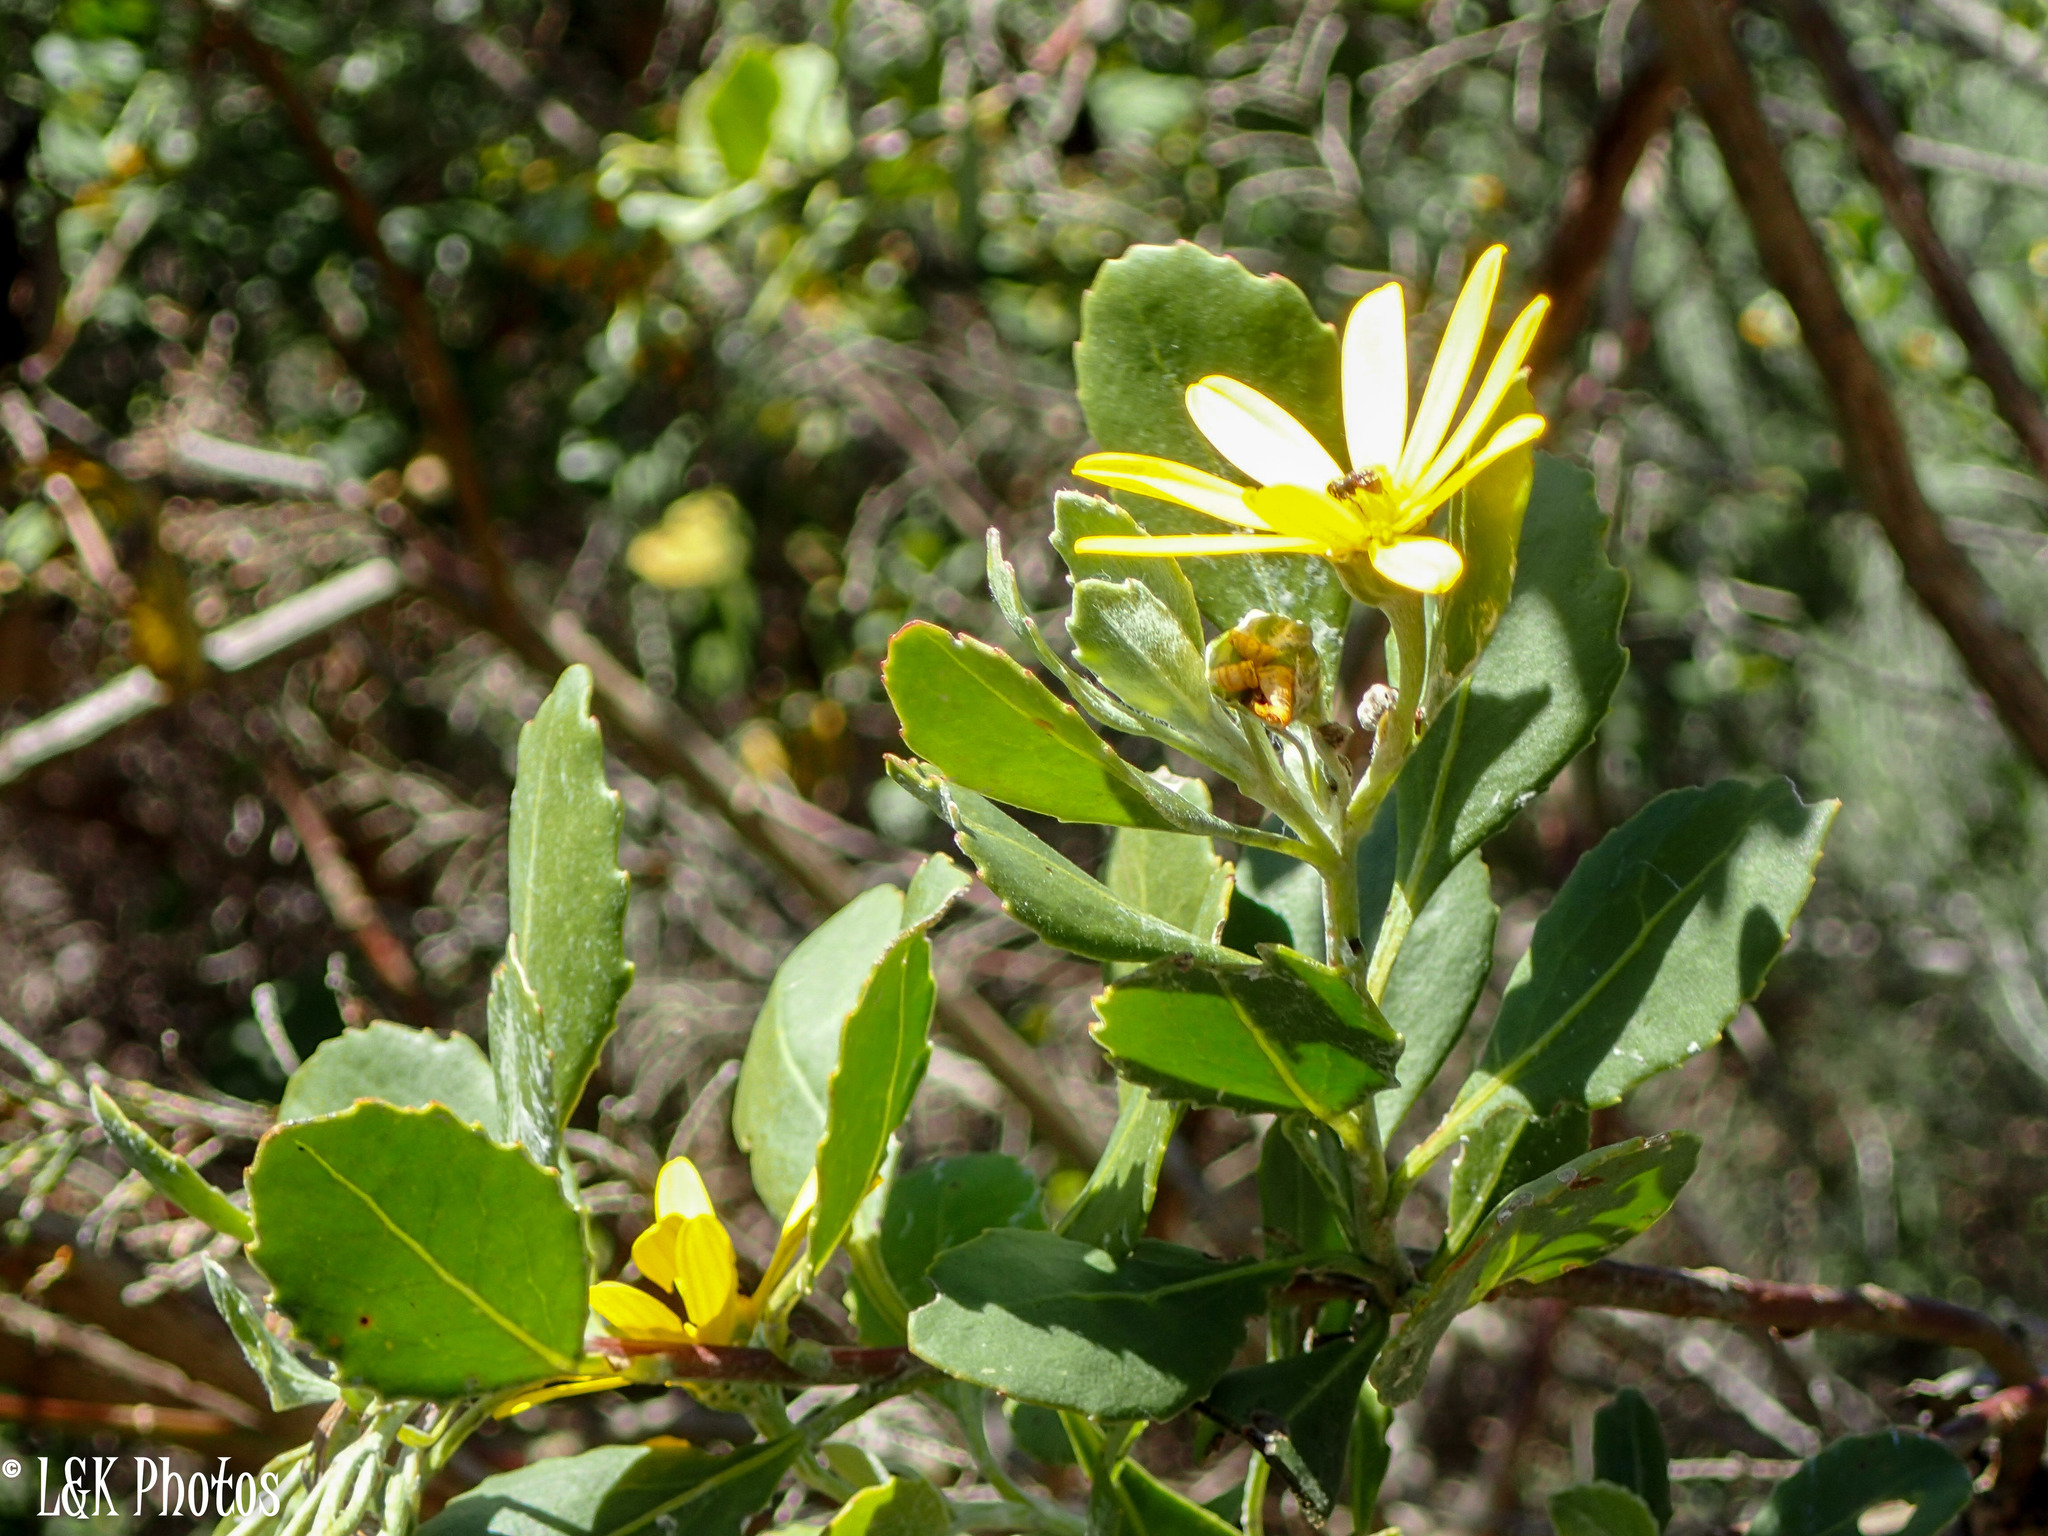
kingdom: Plantae
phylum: Tracheophyta
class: Magnoliopsida
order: Asterales
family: Asteraceae
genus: Osteospermum
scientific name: Osteospermum moniliferum
